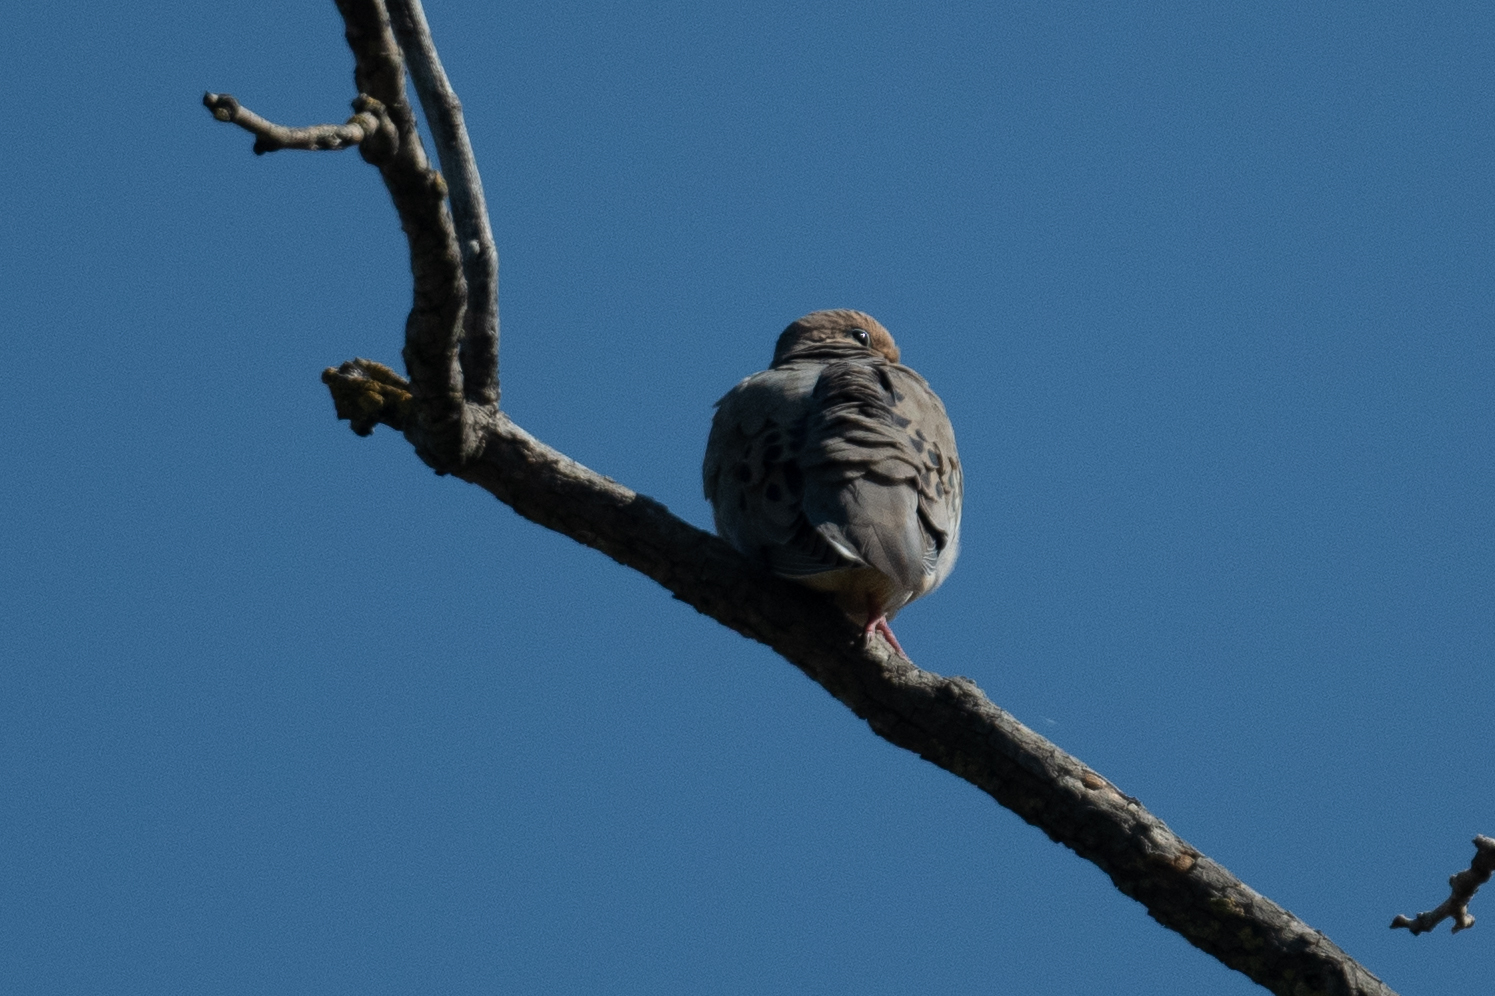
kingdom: Animalia
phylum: Chordata
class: Aves
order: Columbiformes
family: Columbidae
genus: Zenaida
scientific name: Zenaida macroura
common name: Mourning dove
